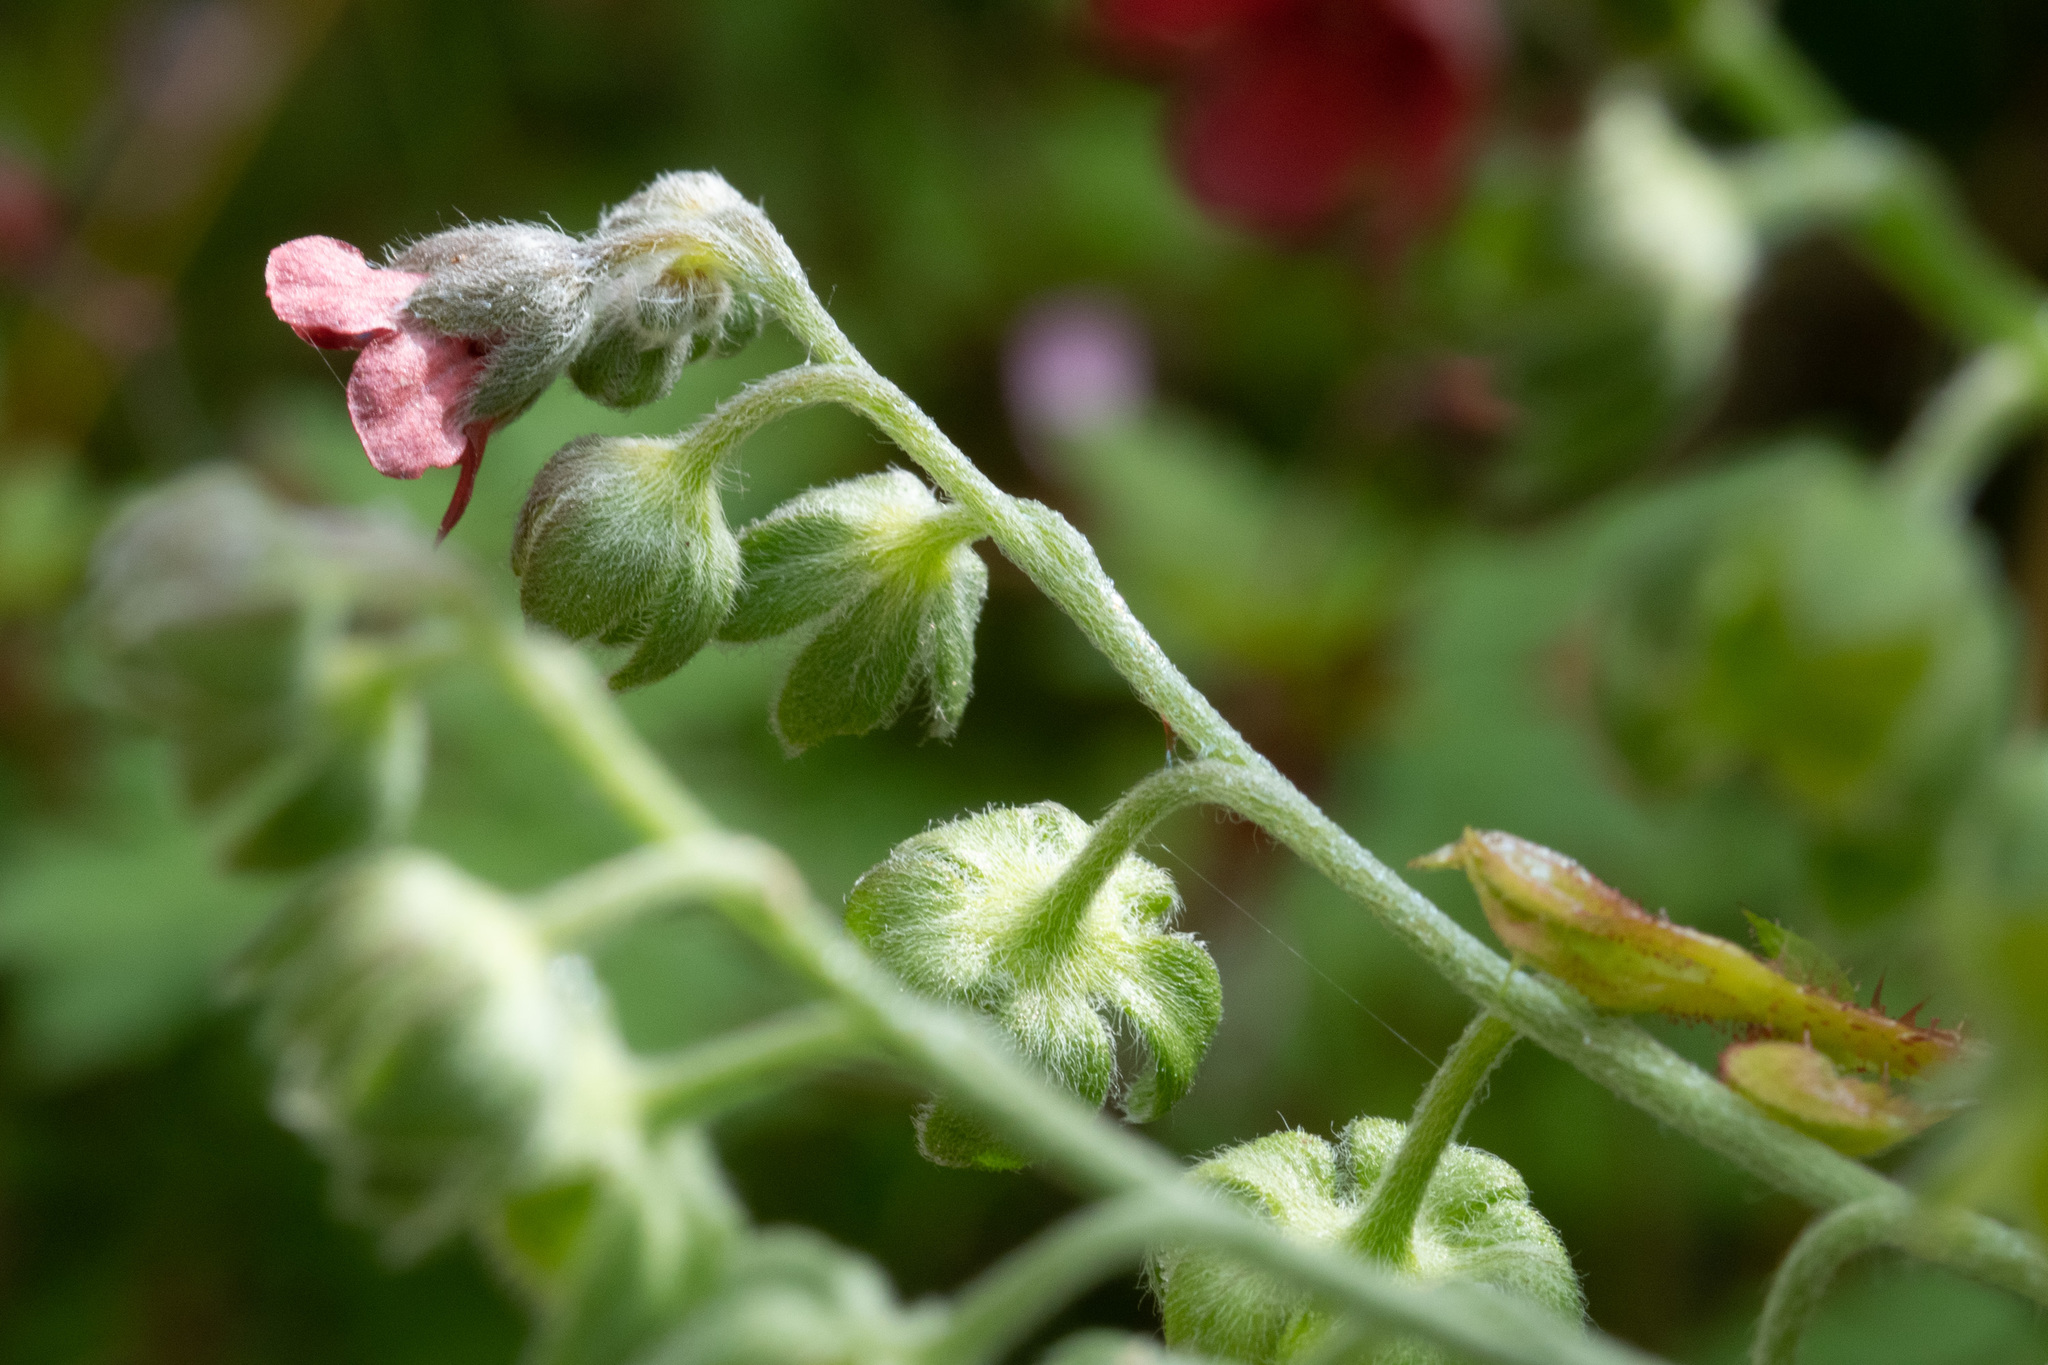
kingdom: Plantae
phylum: Tracheophyta
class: Magnoliopsida
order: Boraginales
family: Boraginaceae
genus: Cynoglossum
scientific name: Cynoglossum officinale
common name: Hound's-tongue
